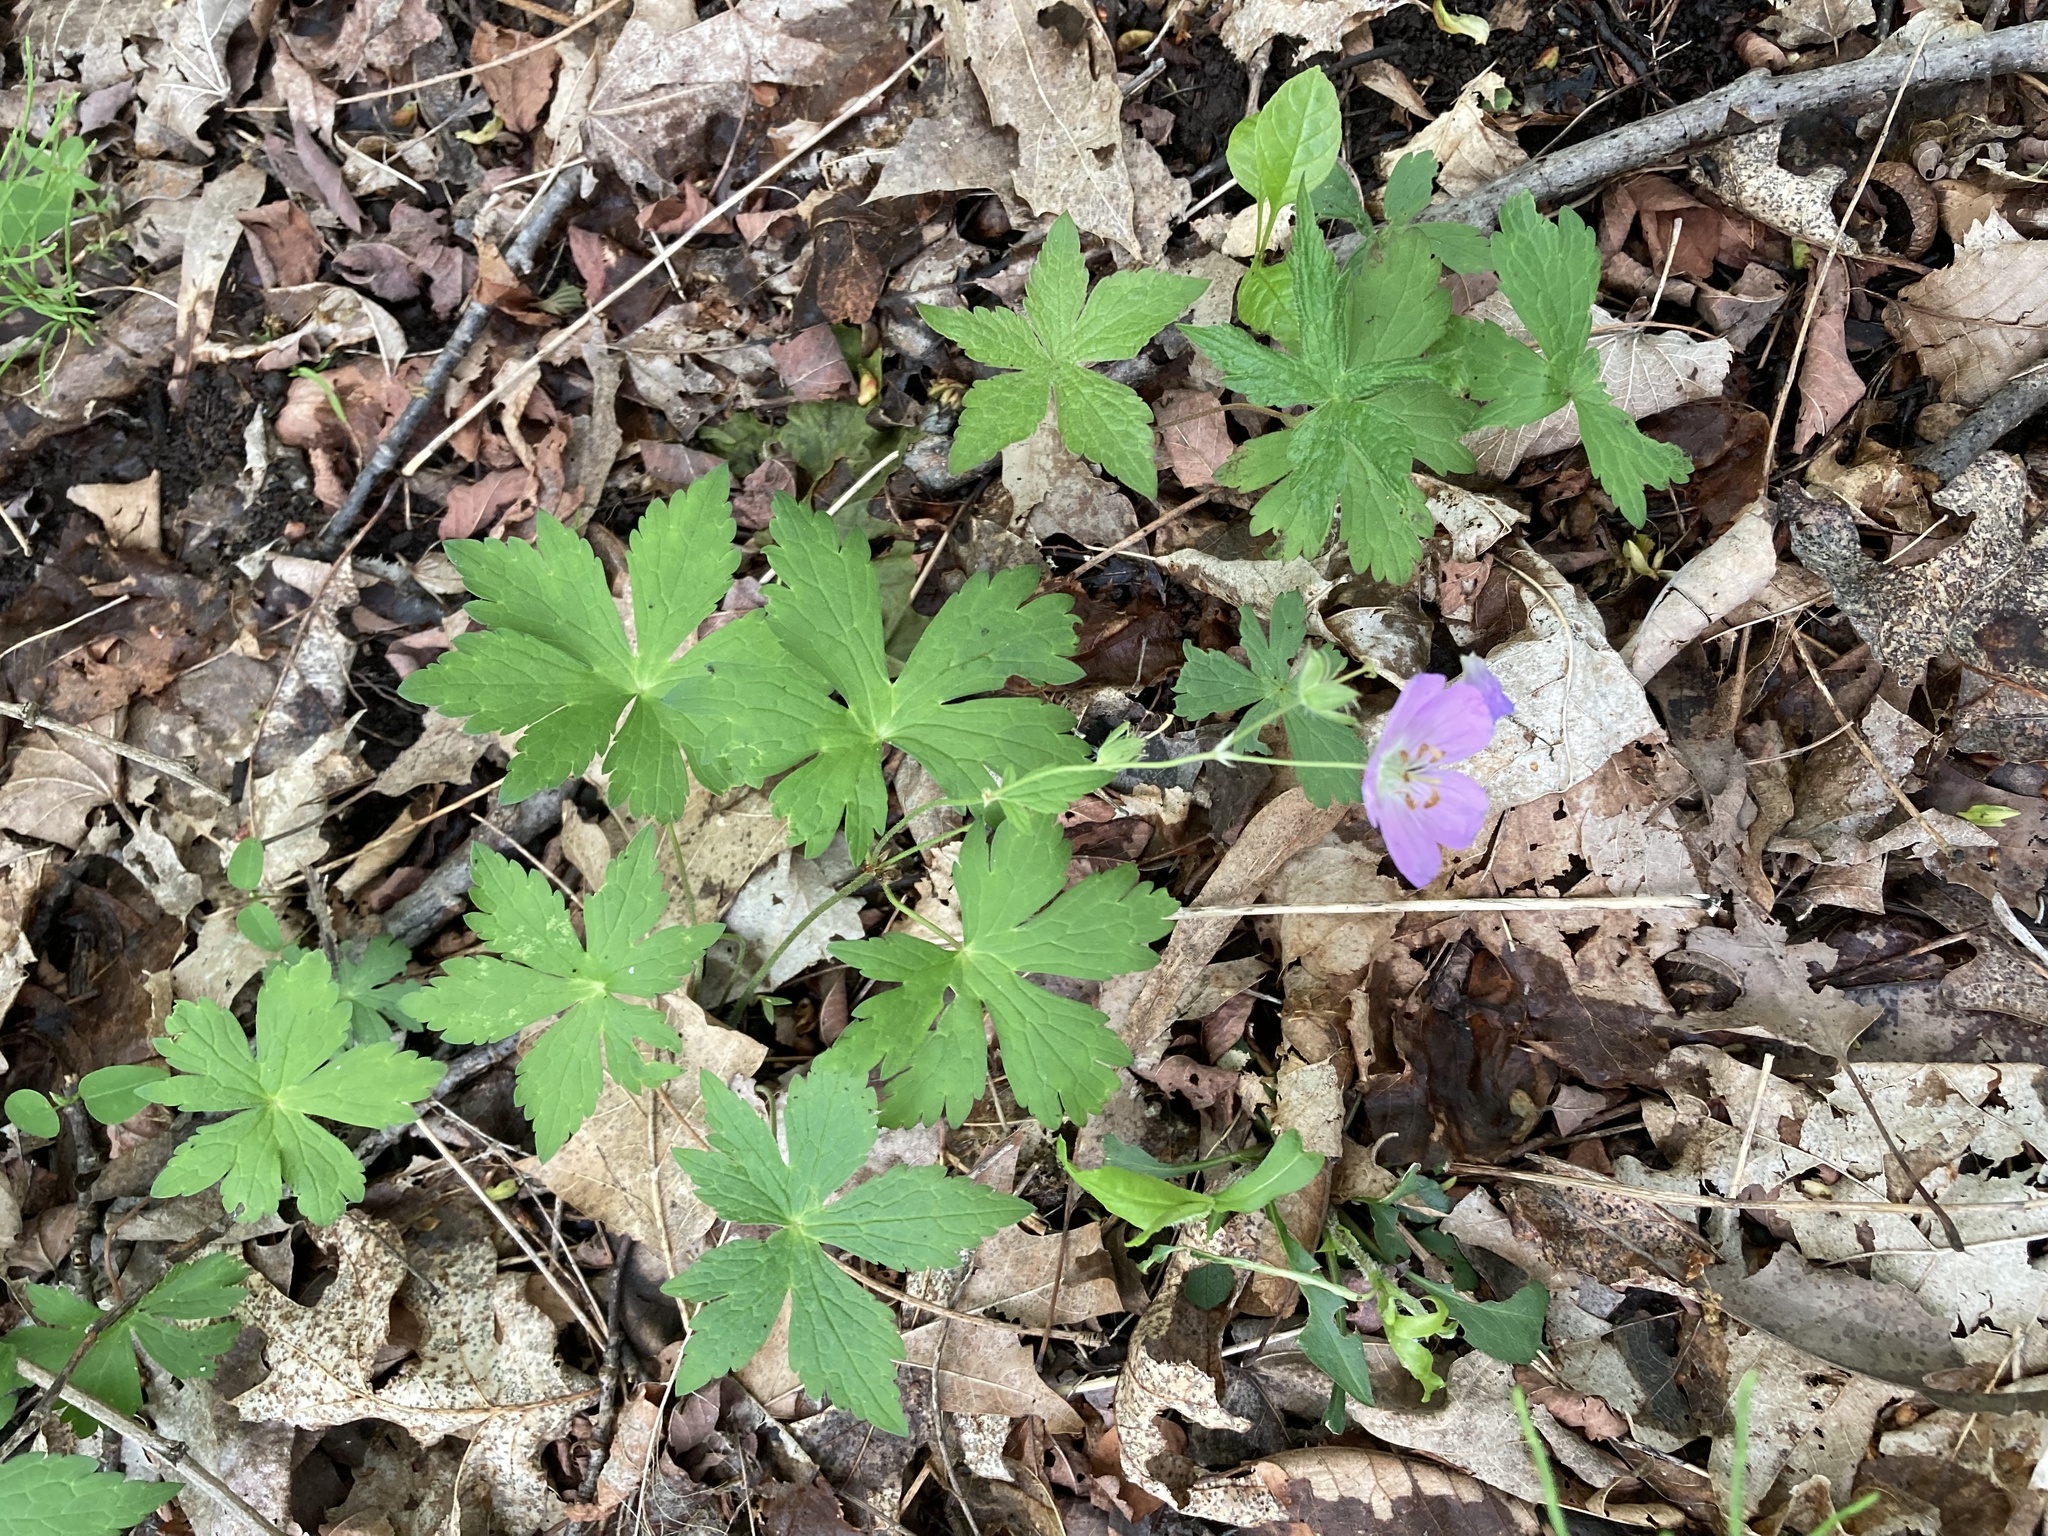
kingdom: Plantae
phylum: Tracheophyta
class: Magnoliopsida
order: Geraniales
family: Geraniaceae
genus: Geranium
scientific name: Geranium maculatum
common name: Spotted geranium
